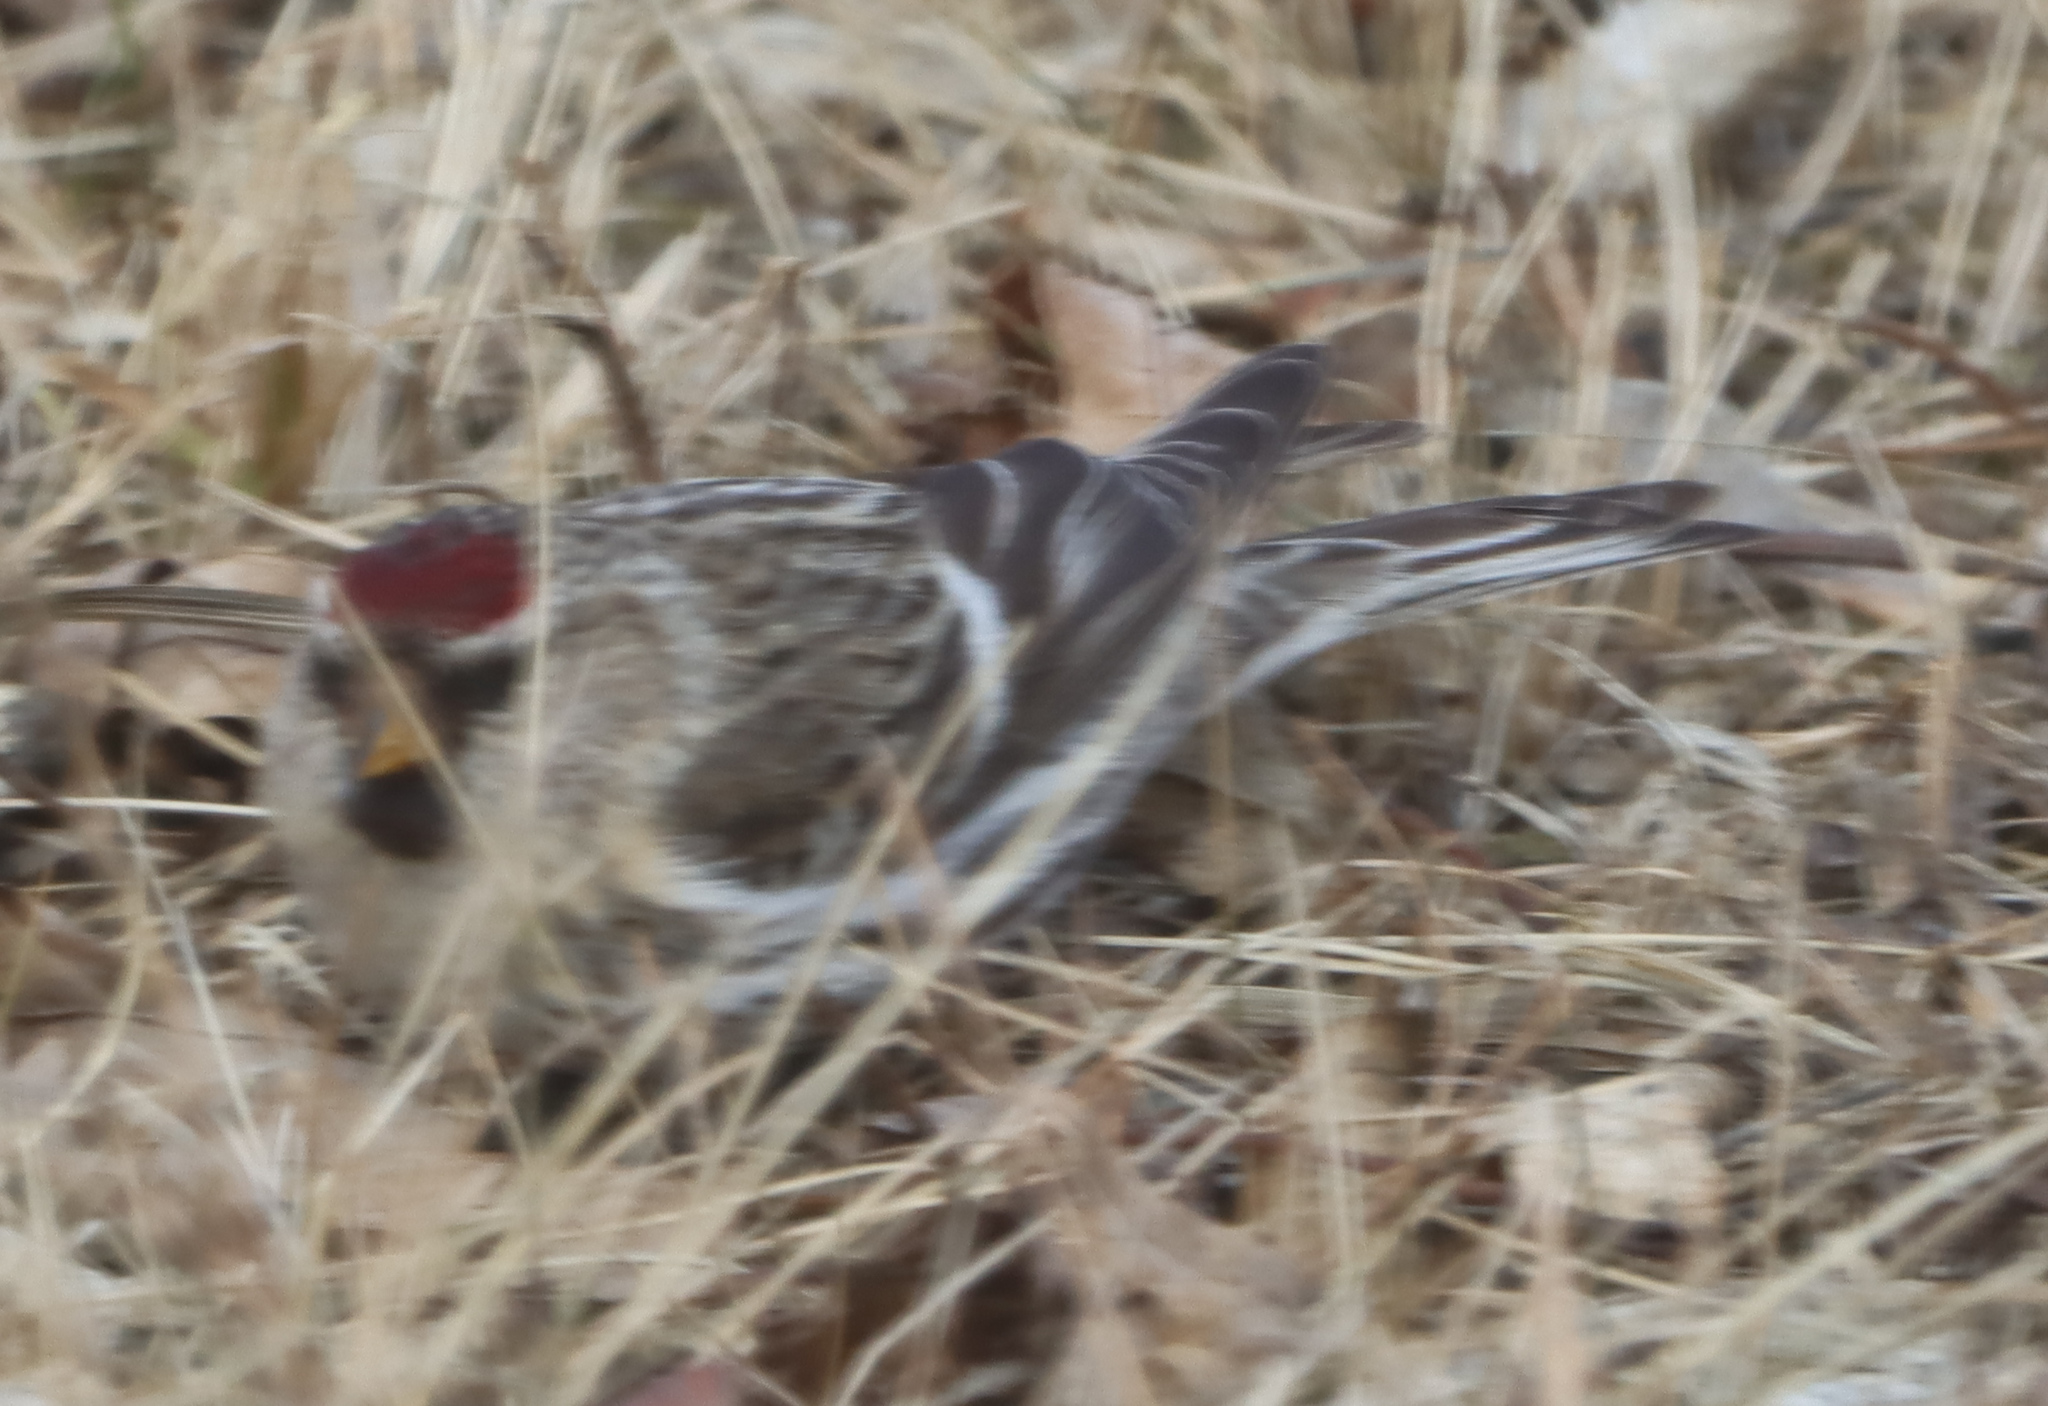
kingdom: Animalia
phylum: Chordata
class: Aves
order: Passeriformes
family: Fringillidae
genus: Acanthis
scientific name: Acanthis flammea
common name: Common redpoll
